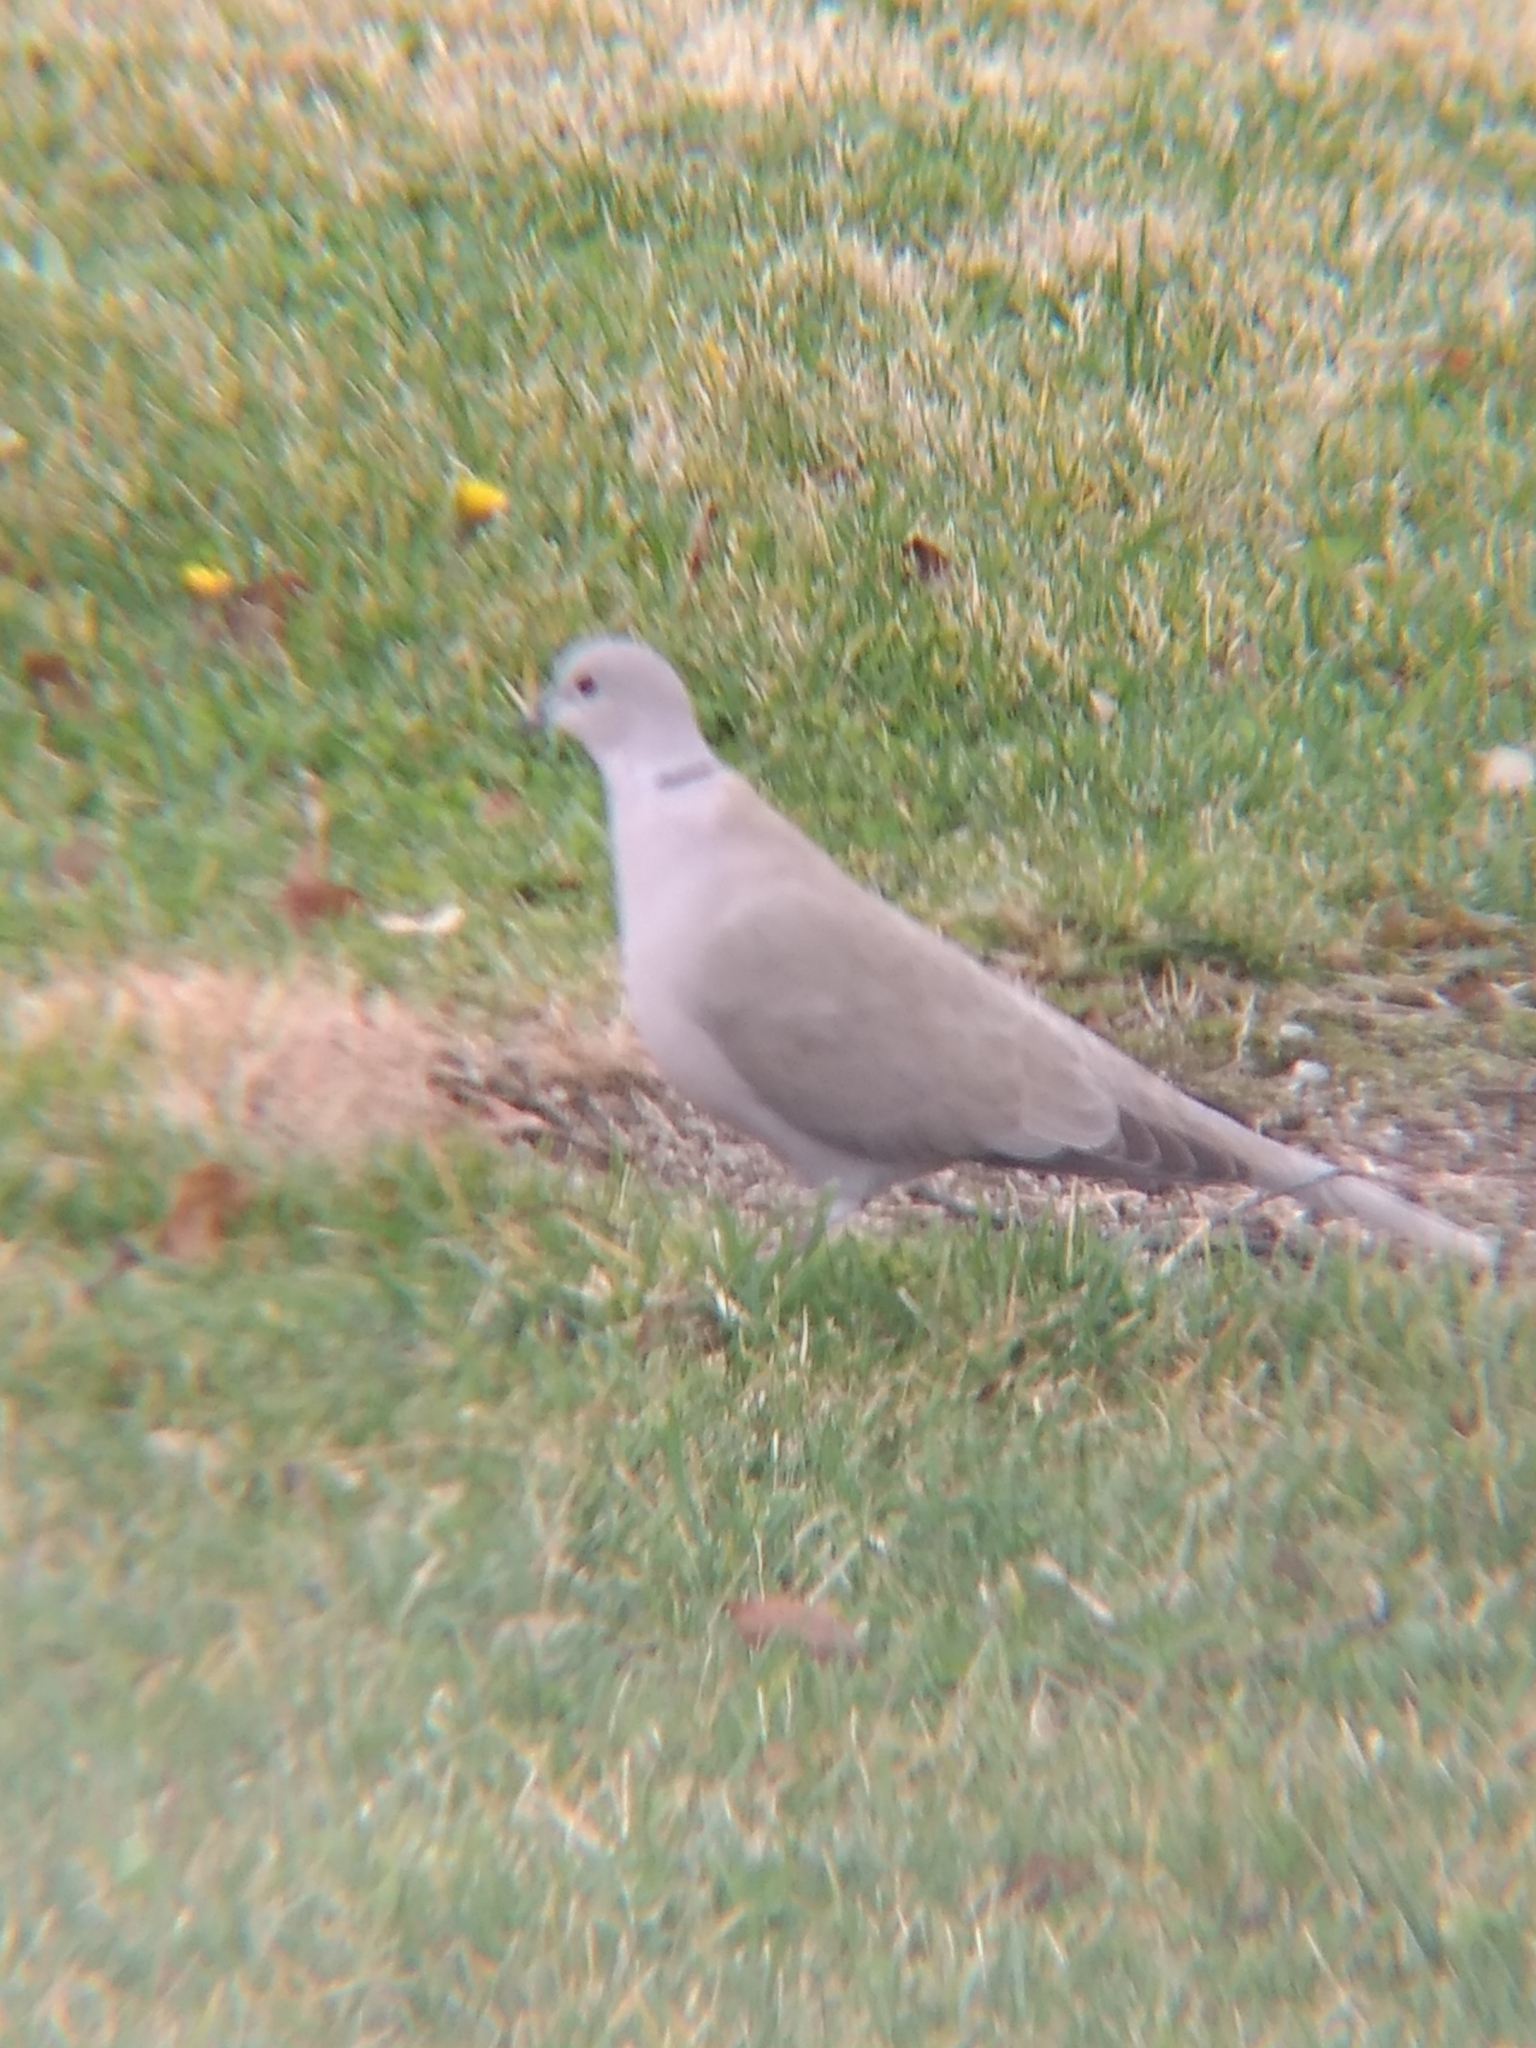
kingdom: Animalia
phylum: Chordata
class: Aves
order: Columbiformes
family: Columbidae
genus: Streptopelia
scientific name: Streptopelia decaocto
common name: Eurasian collared dove
